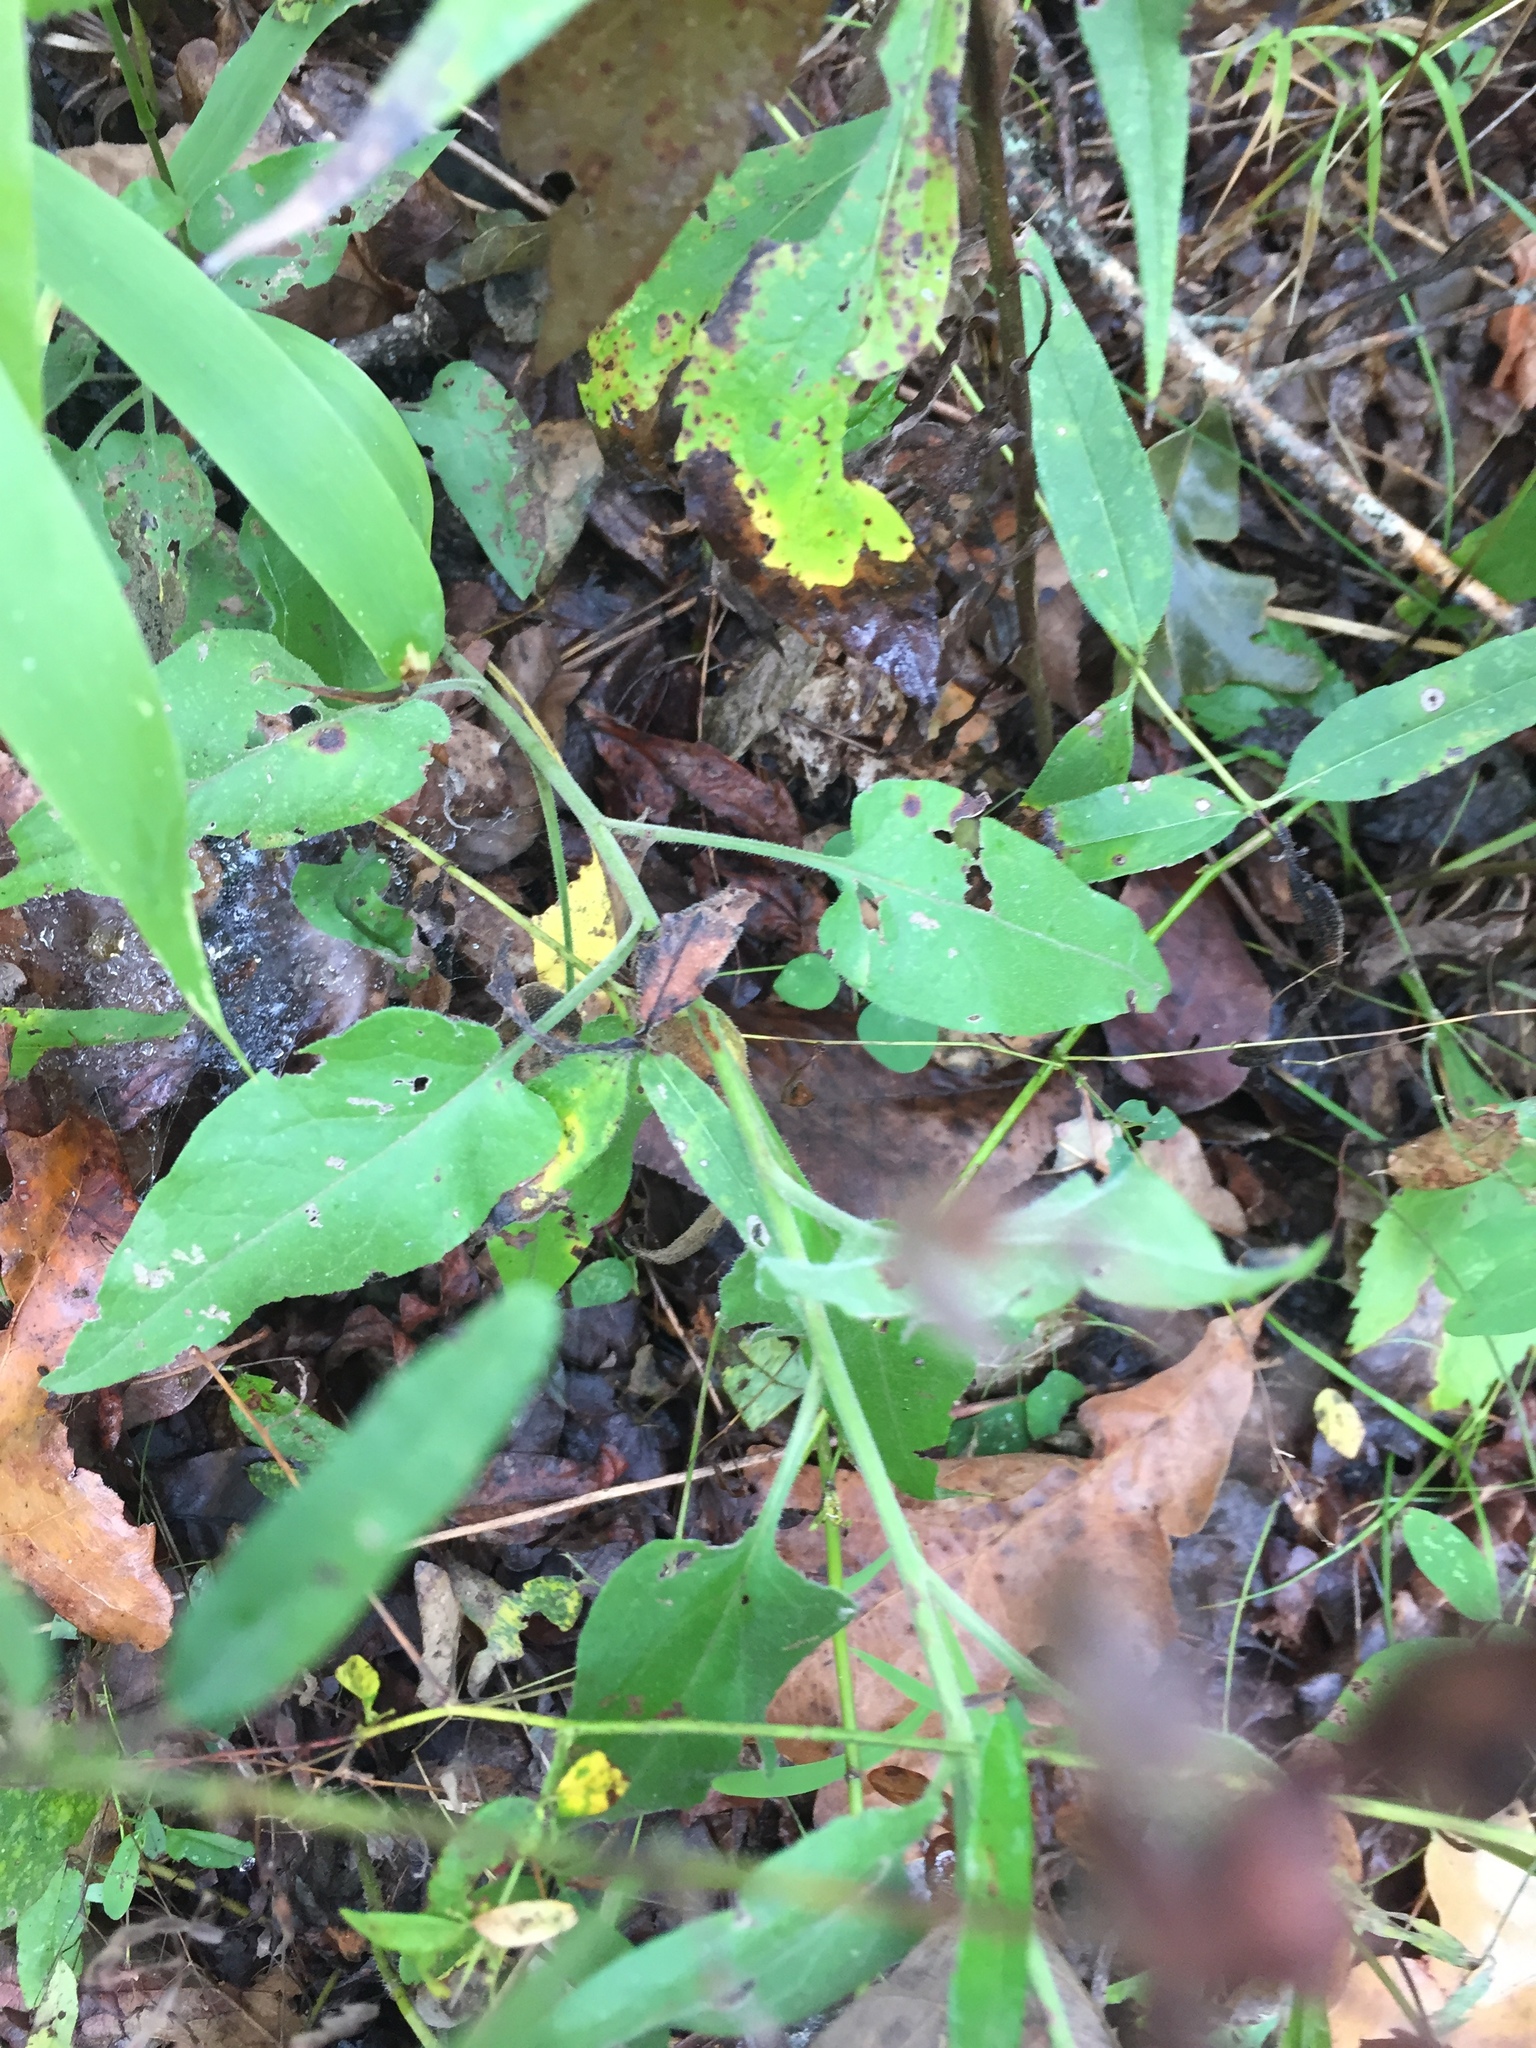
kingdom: Plantae
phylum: Tracheophyta
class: Magnoliopsida
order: Asterales
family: Asteraceae
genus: Symphyotrichum
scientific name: Symphyotrichum anomalum
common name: Many-ray aster
